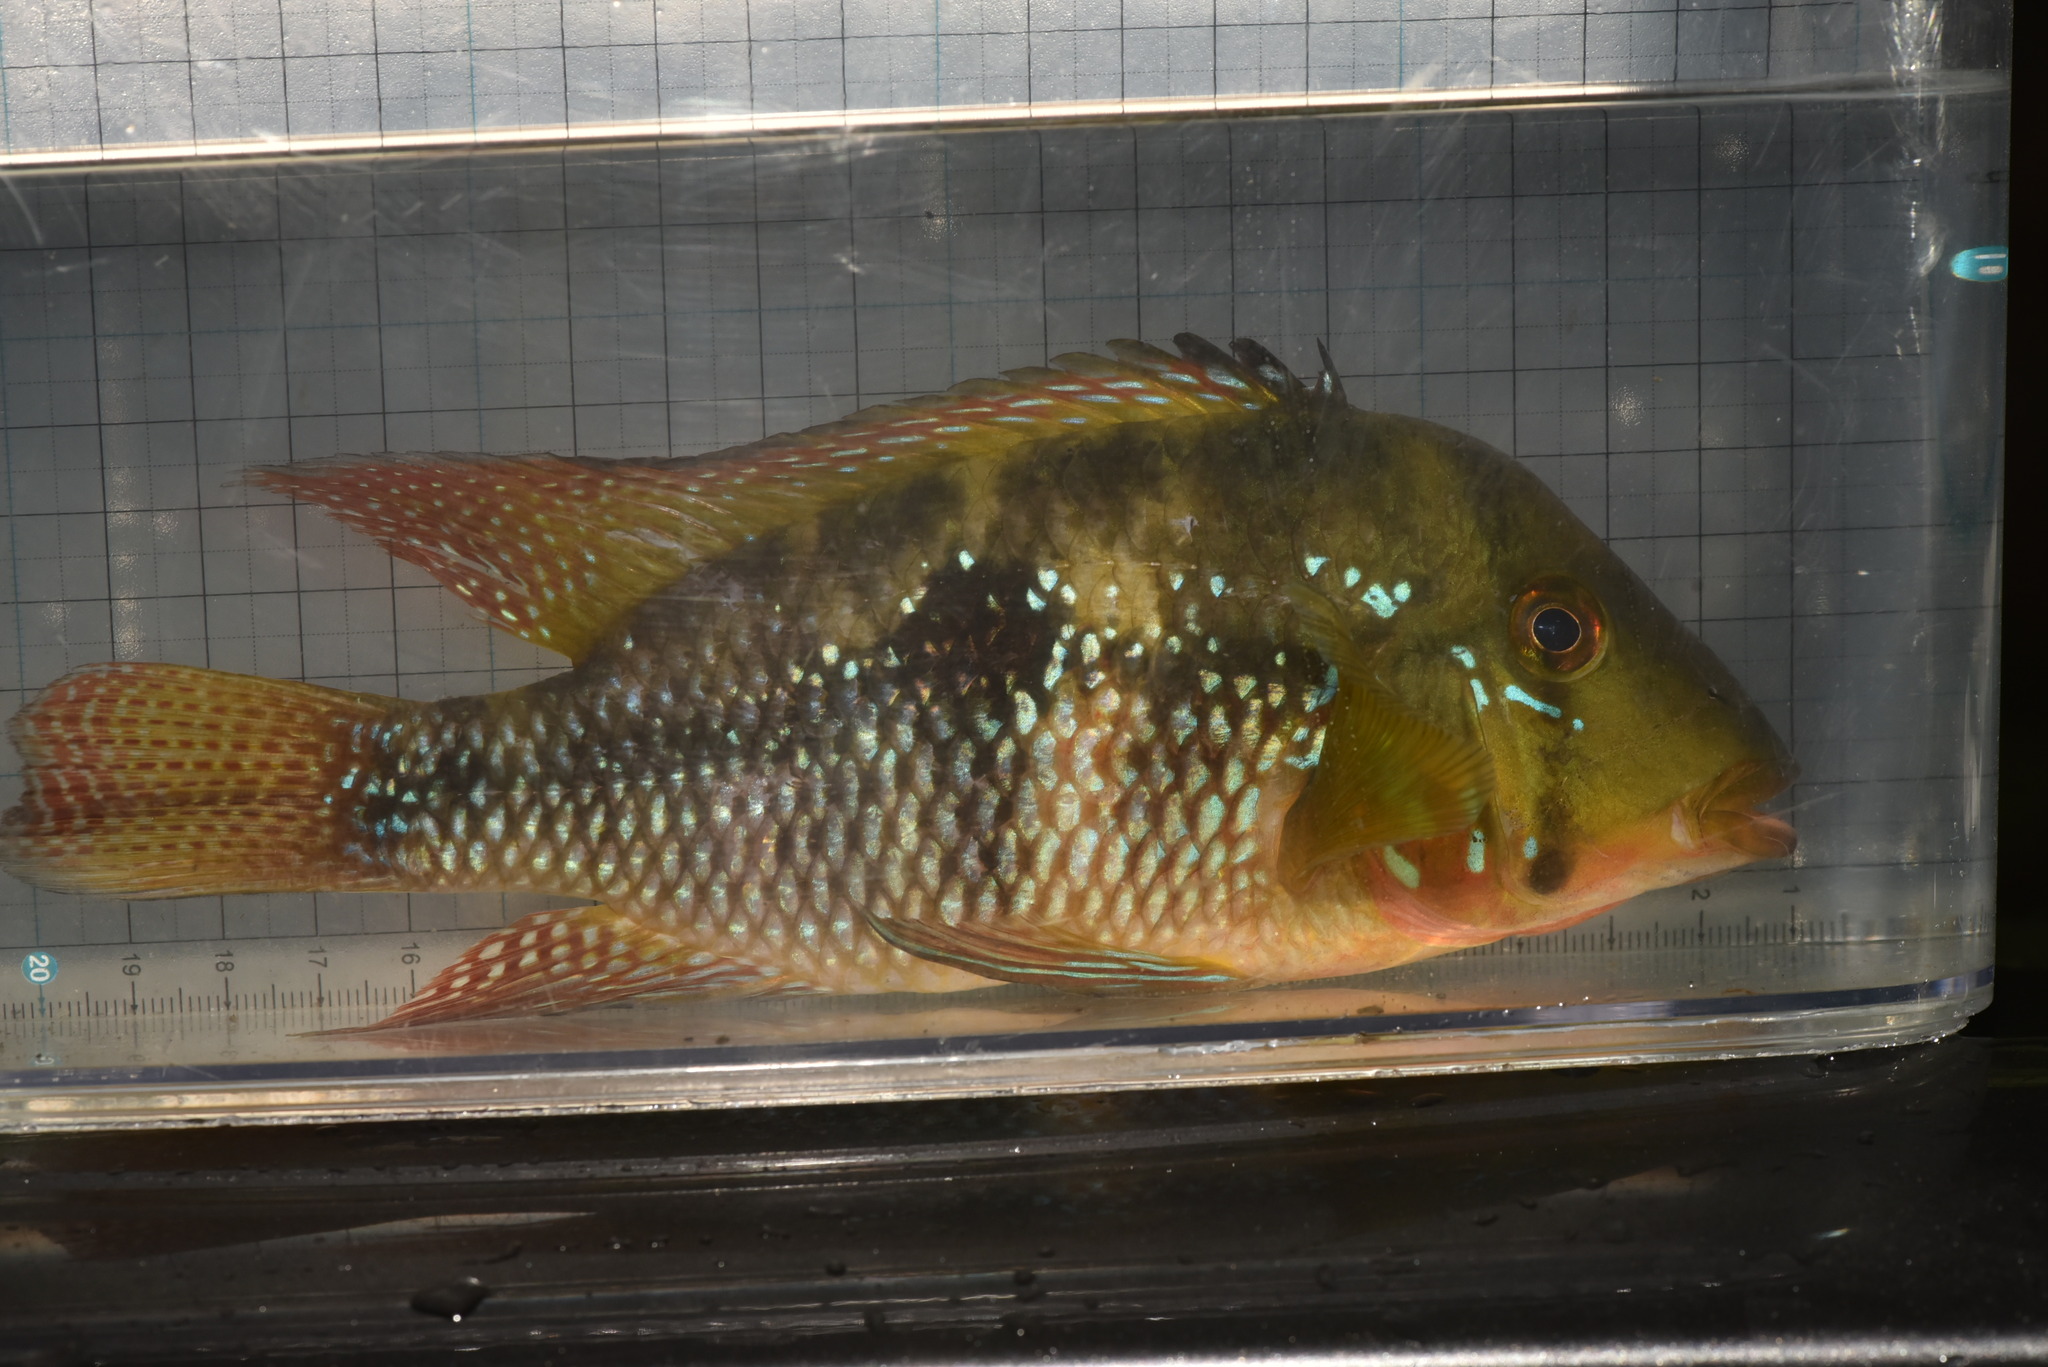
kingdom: Animalia
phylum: Chordata
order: Perciformes
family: Cichlidae
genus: Geophagus
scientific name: Geophagus brasiliensis
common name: Braziliensis
